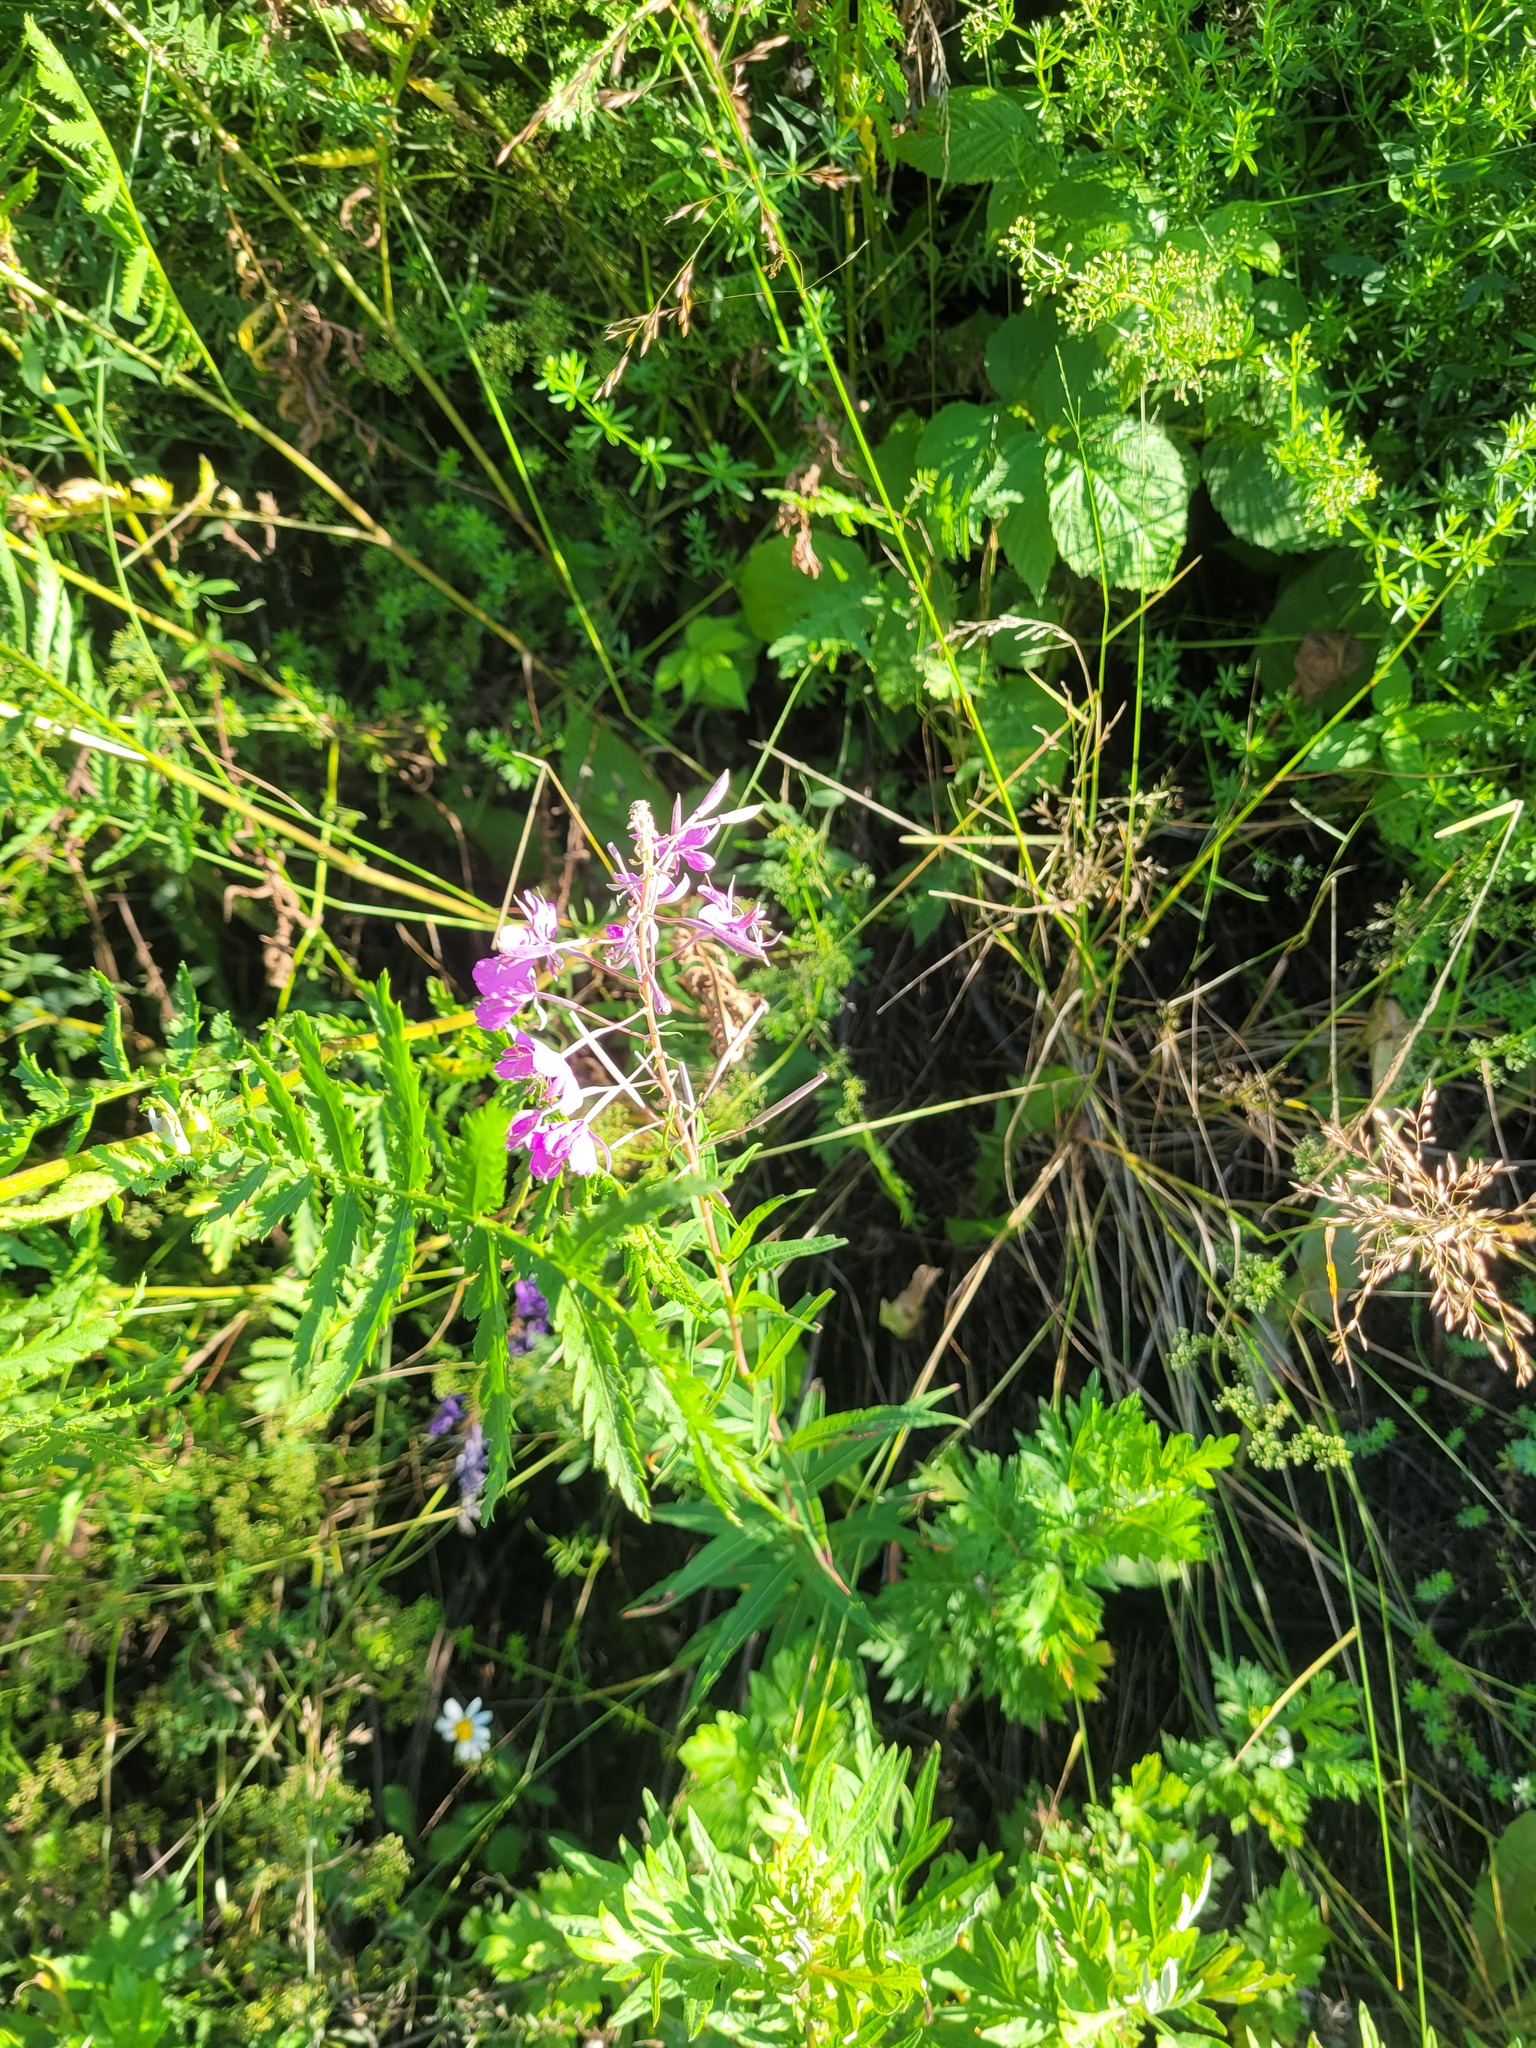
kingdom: Plantae
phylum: Tracheophyta
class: Magnoliopsida
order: Myrtales
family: Onagraceae
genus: Chamaenerion
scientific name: Chamaenerion angustifolium
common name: Fireweed
